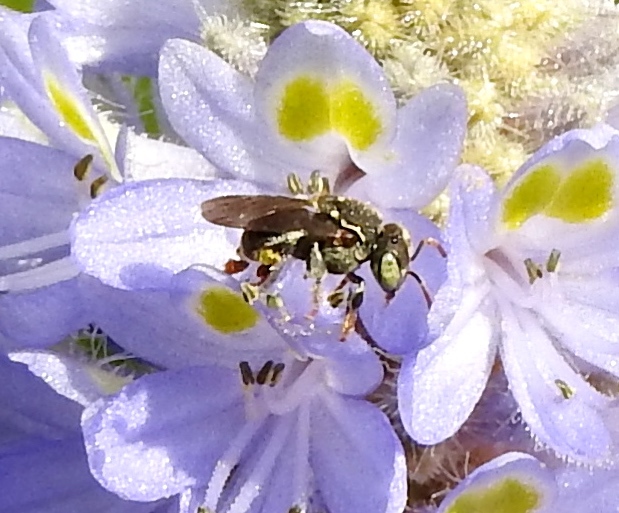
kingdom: Animalia
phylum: Arthropoda
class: Insecta
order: Hymenoptera
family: Apidae
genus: Nannotrigona
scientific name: Nannotrigona perilampoides
